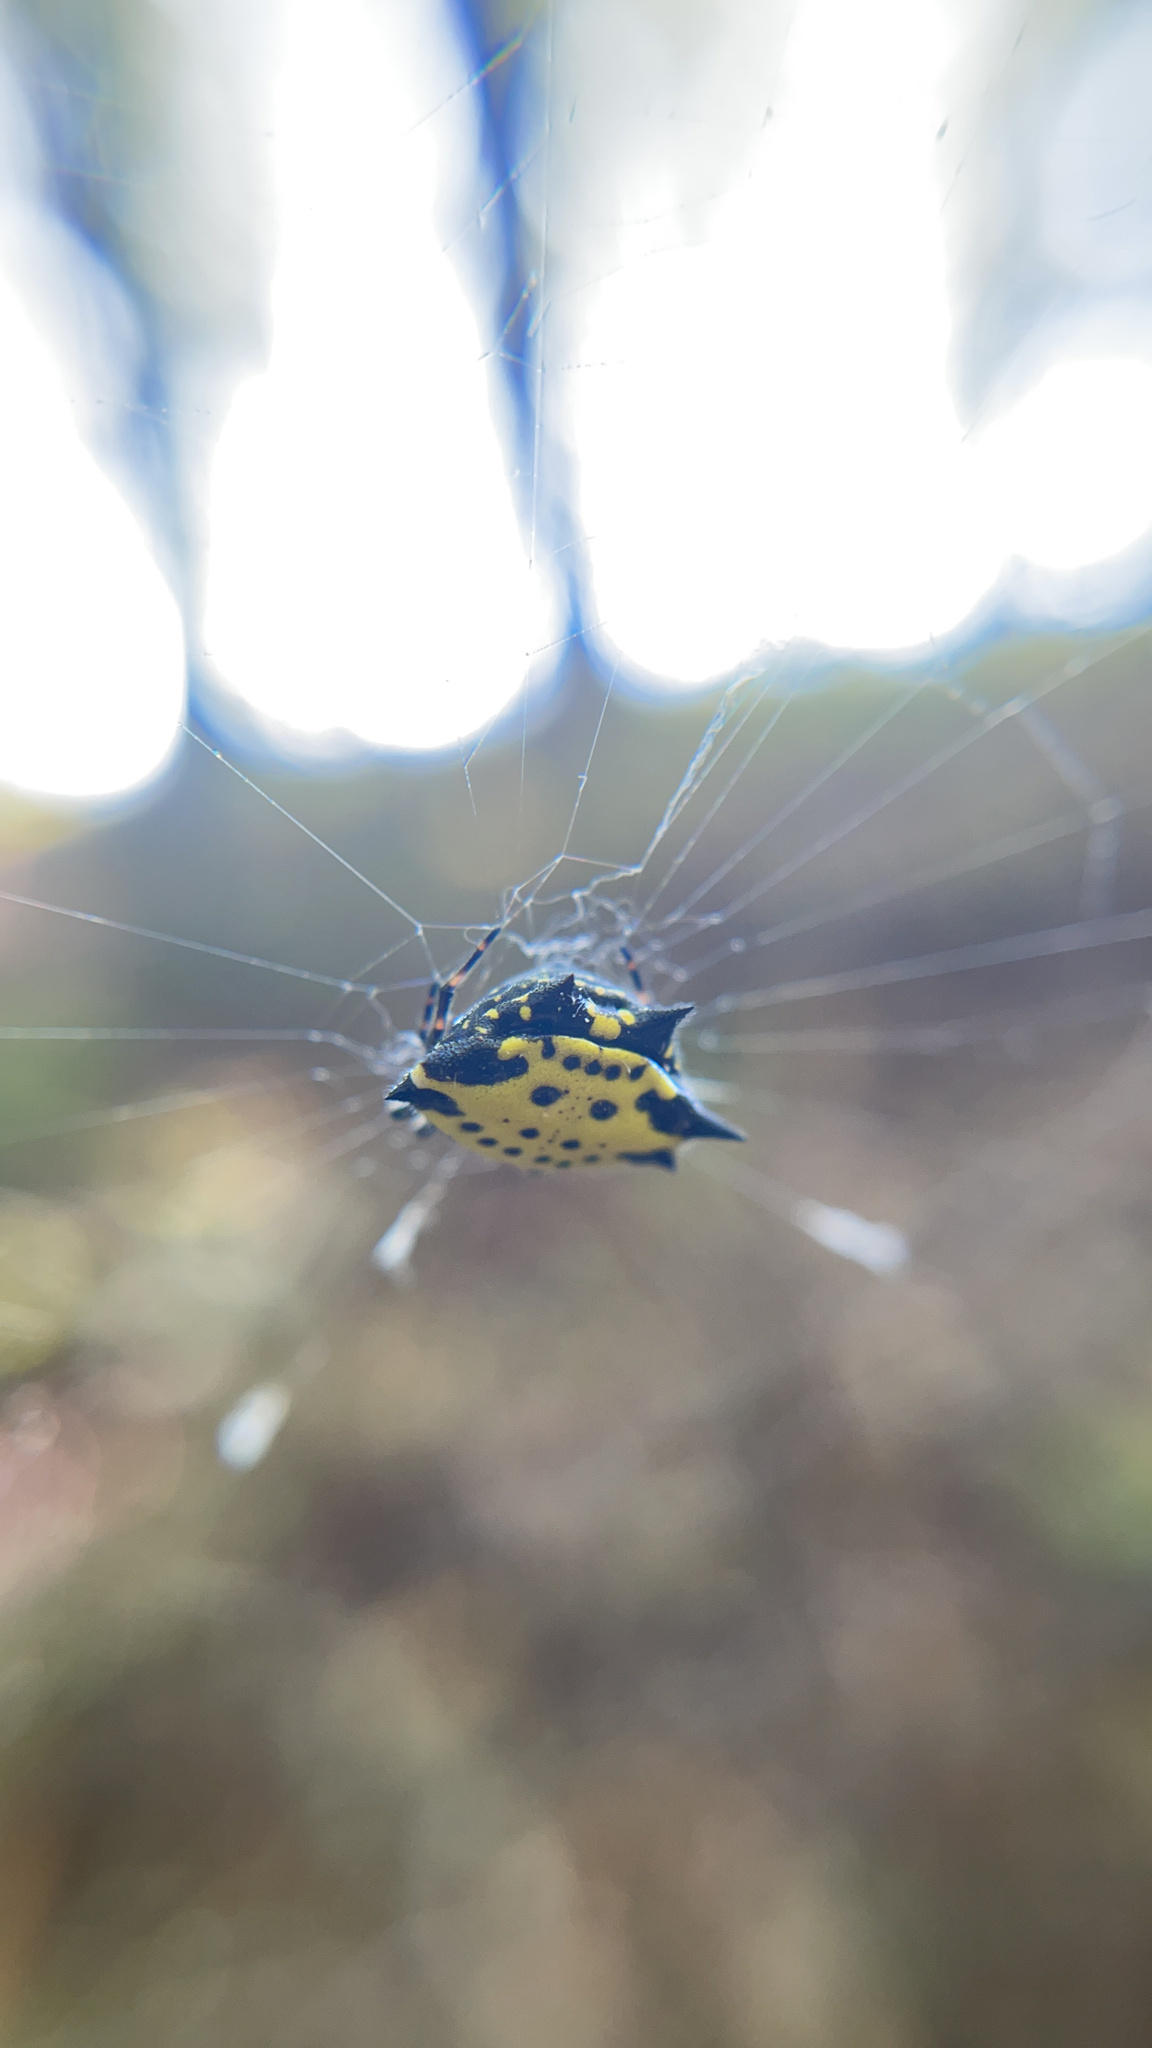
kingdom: Animalia
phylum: Arthropoda
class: Arachnida
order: Araneae
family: Araneidae
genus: Gasteracantha
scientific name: Gasteracantha cancriformis
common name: Orb weavers
